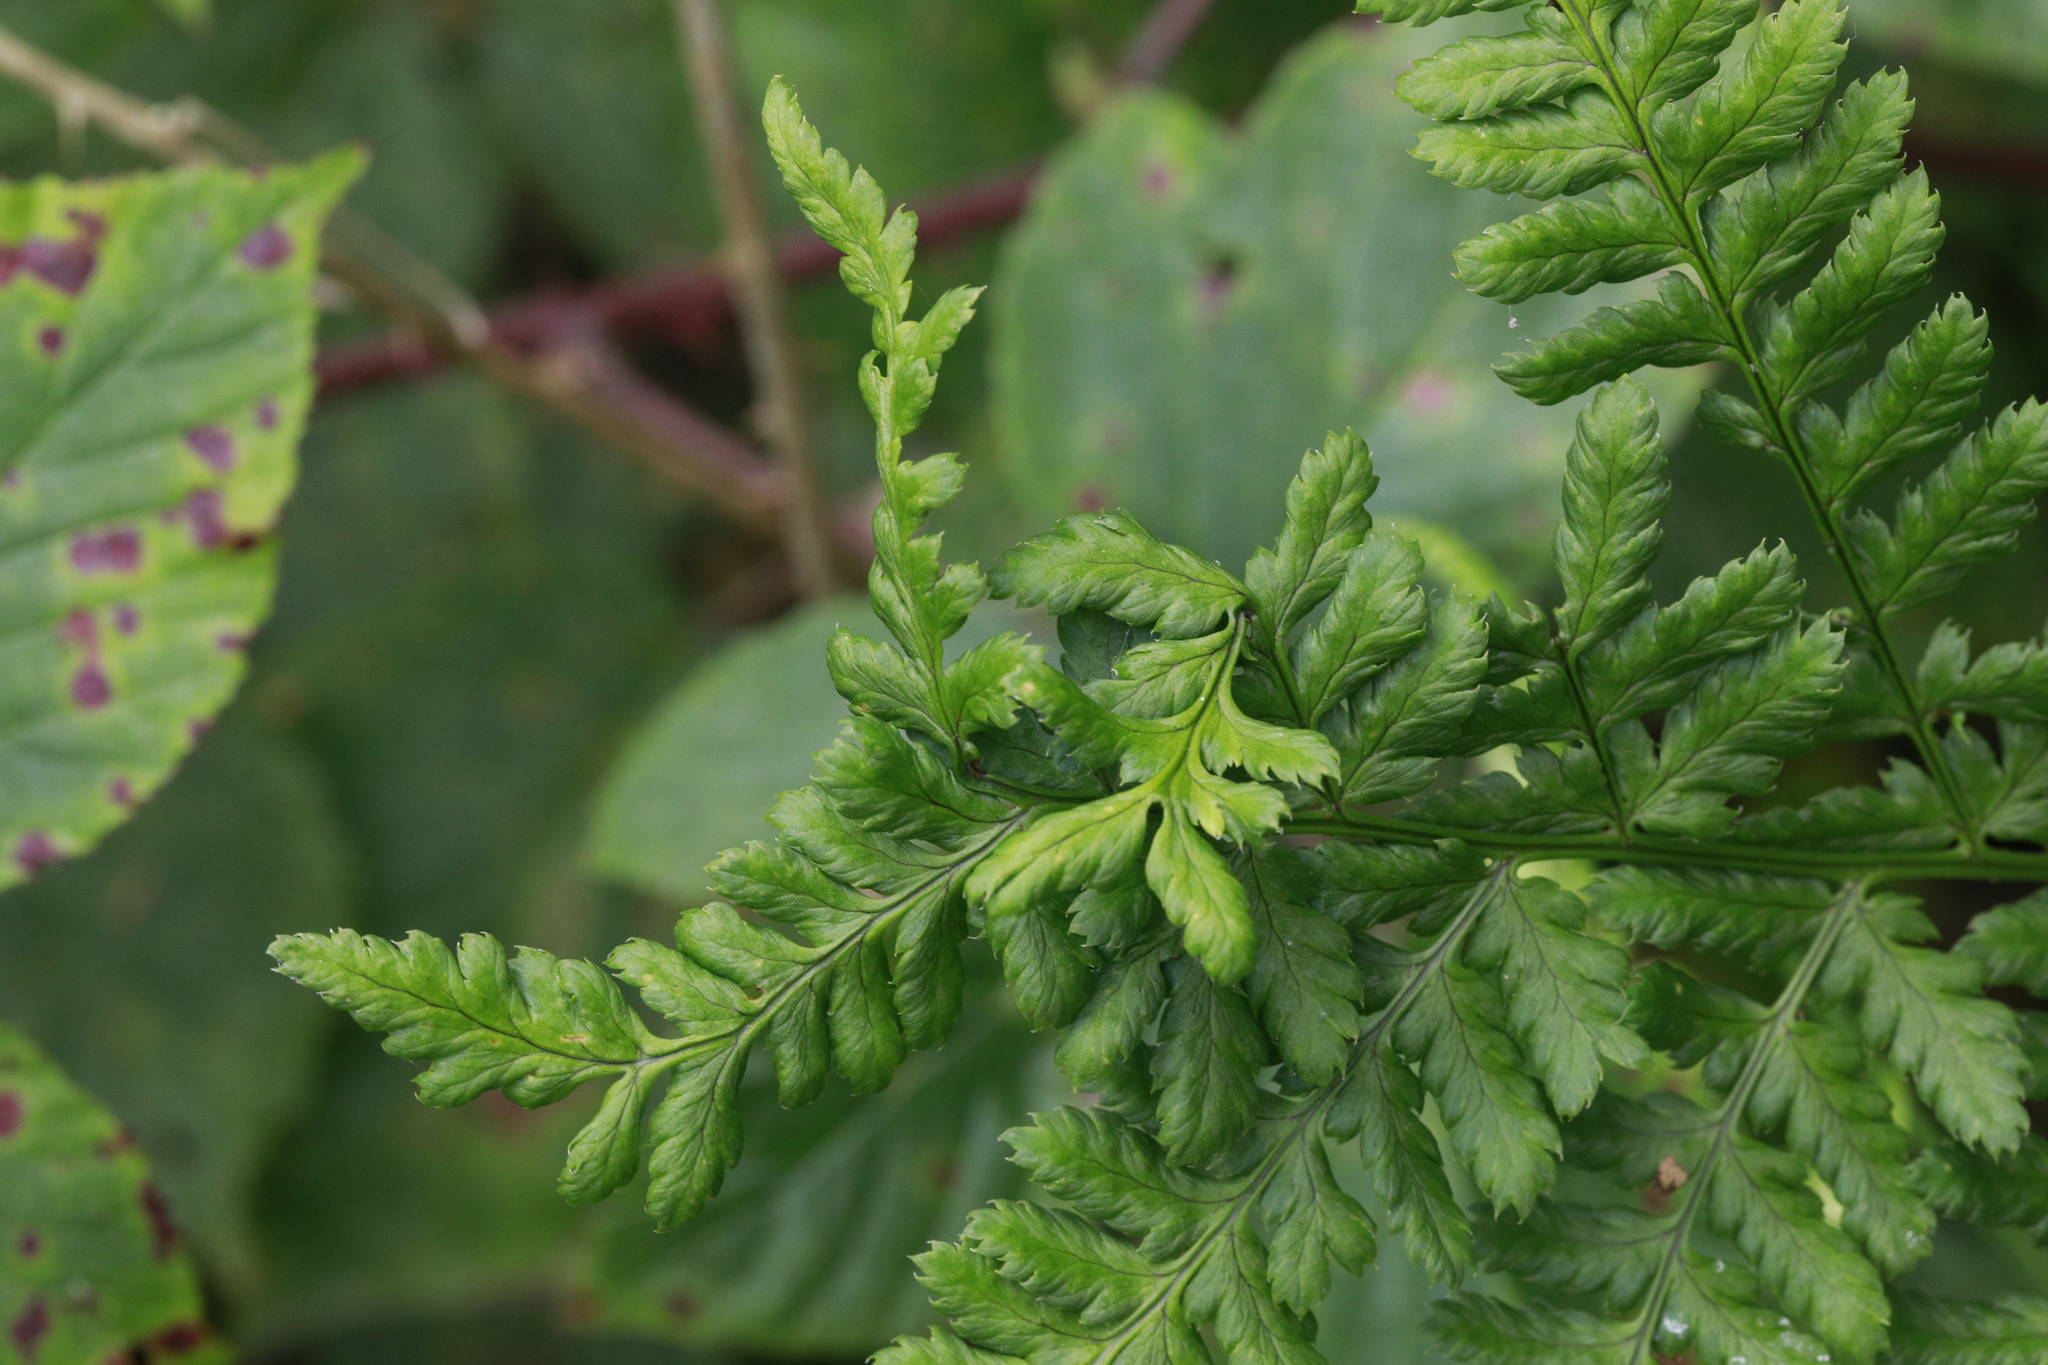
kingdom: Plantae
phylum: Tracheophyta
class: Polypodiopsida
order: Polypodiales
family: Dryopteridaceae
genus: Dryopteris
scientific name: Dryopteris dilatata
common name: Broad buckler-fern
